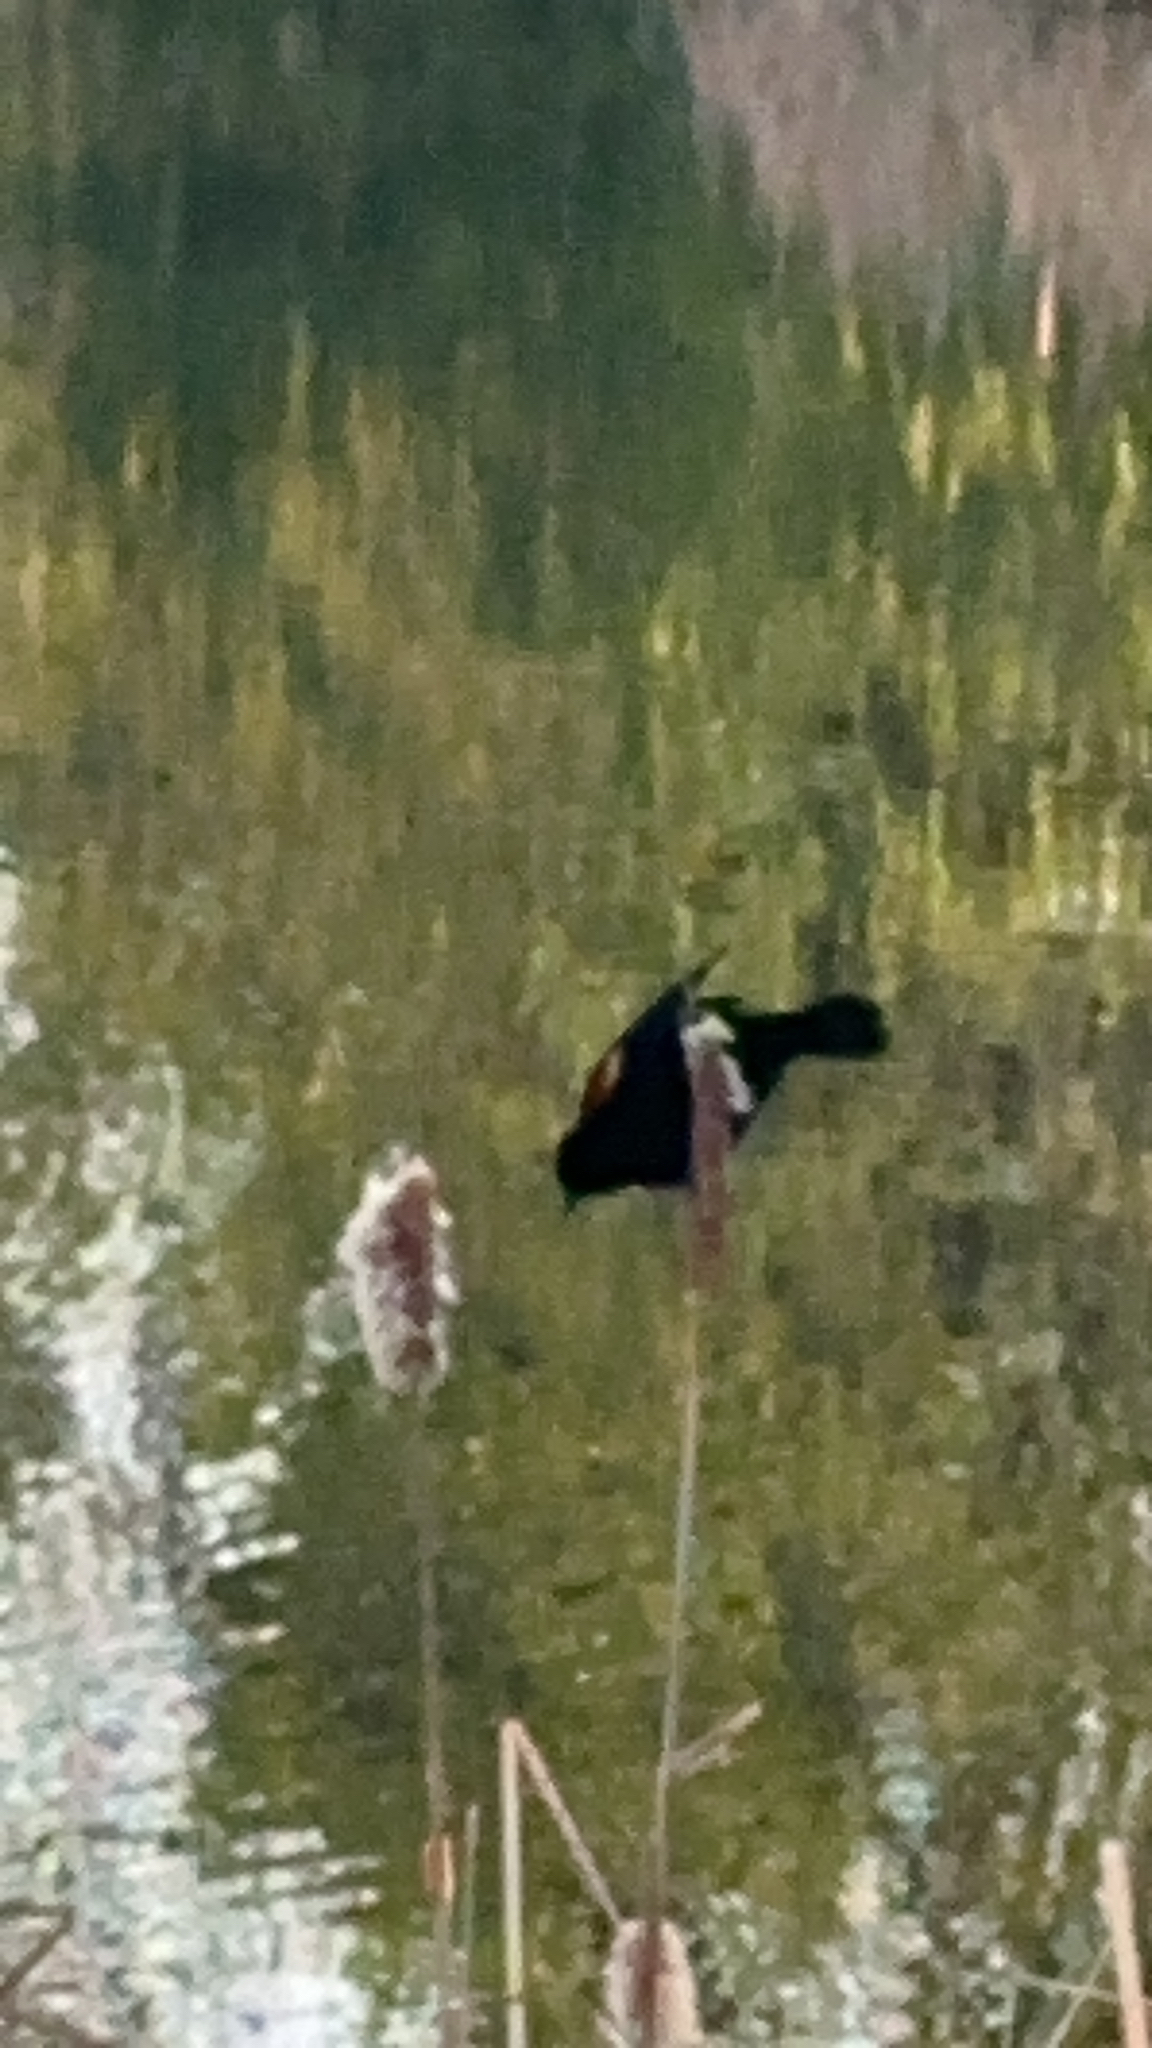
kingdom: Animalia
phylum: Chordata
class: Aves
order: Passeriformes
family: Icteridae
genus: Agelaius
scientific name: Agelaius phoeniceus
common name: Red-winged blackbird
